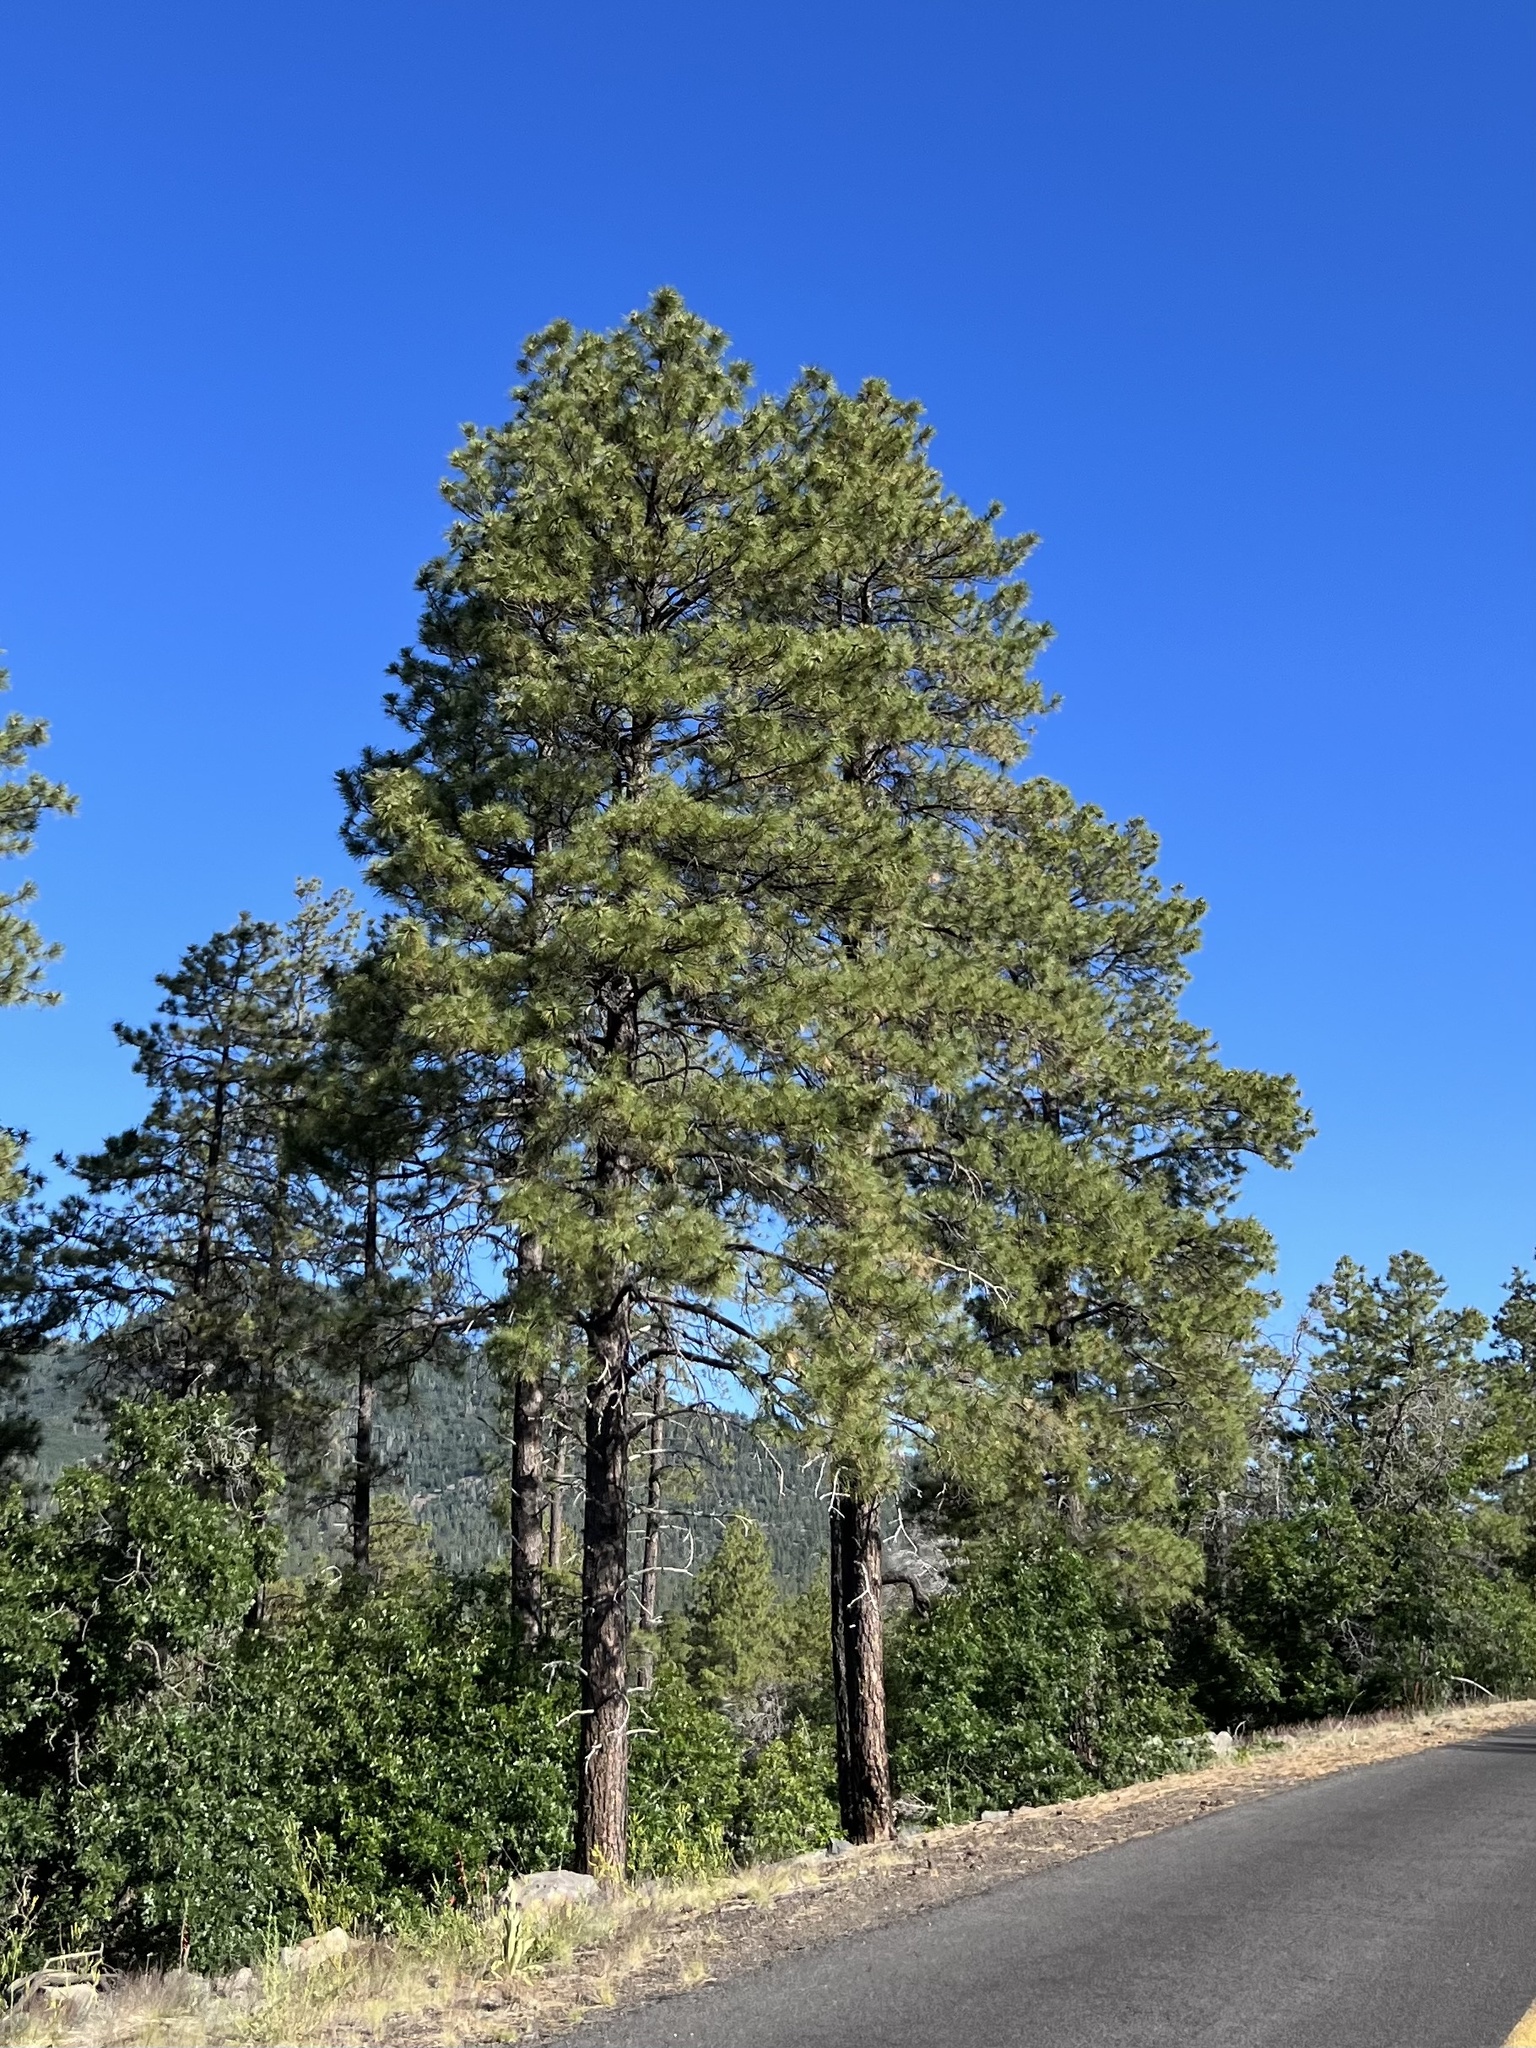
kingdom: Plantae
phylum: Tracheophyta
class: Pinopsida
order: Pinales
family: Pinaceae
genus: Pinus
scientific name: Pinus ponderosa
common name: Western yellow-pine
